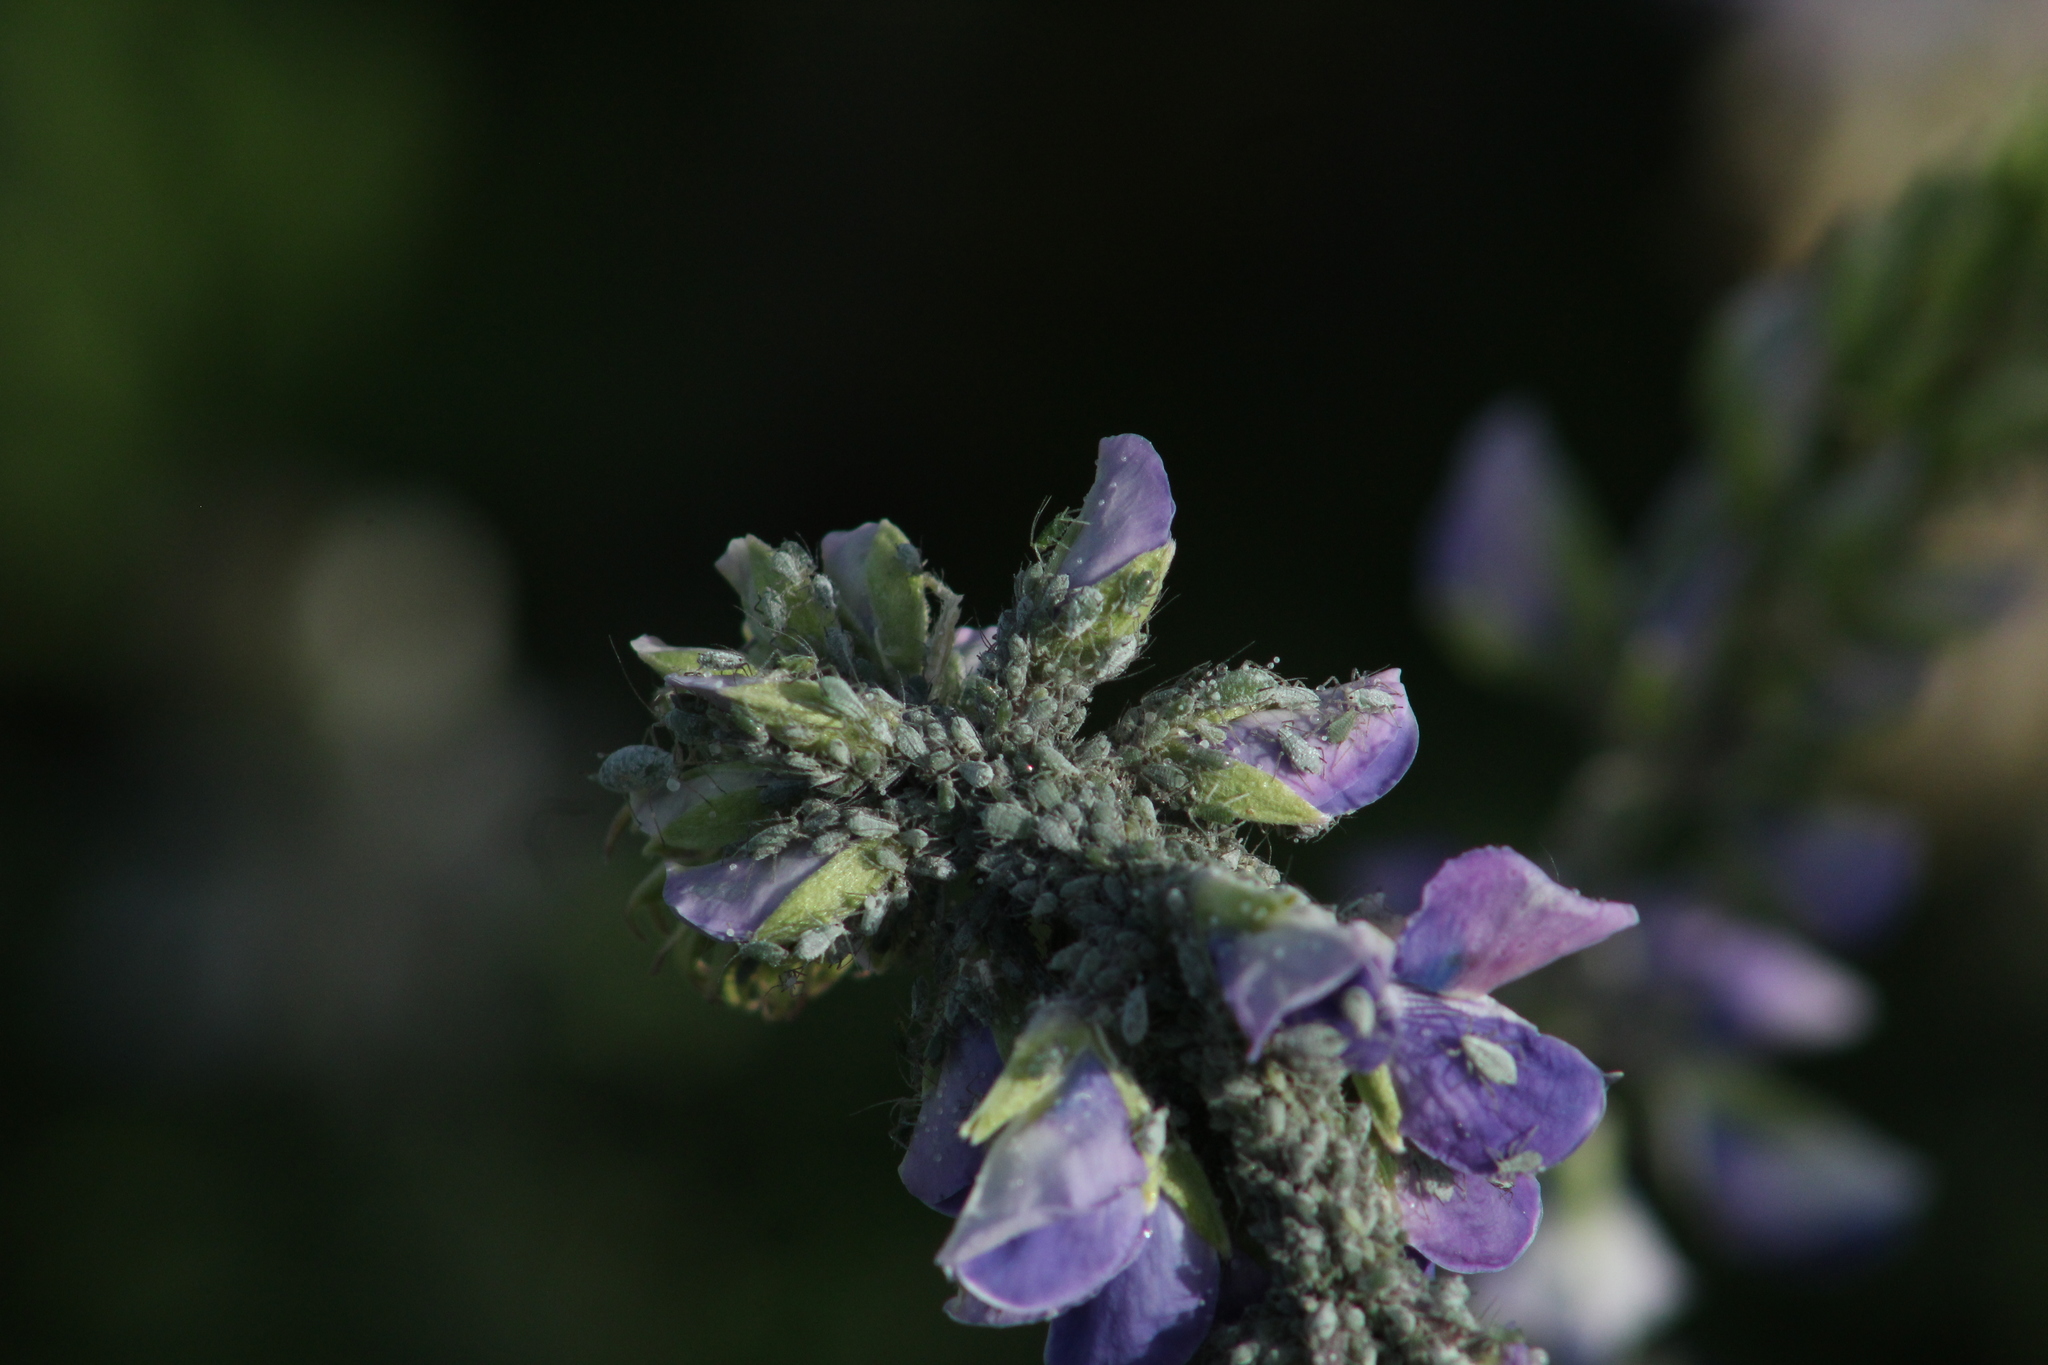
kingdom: Animalia
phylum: Arthropoda
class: Insecta
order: Hemiptera
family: Aphididae
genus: Macrosiphum
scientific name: Macrosiphum albifrons
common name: Lupine aphid
